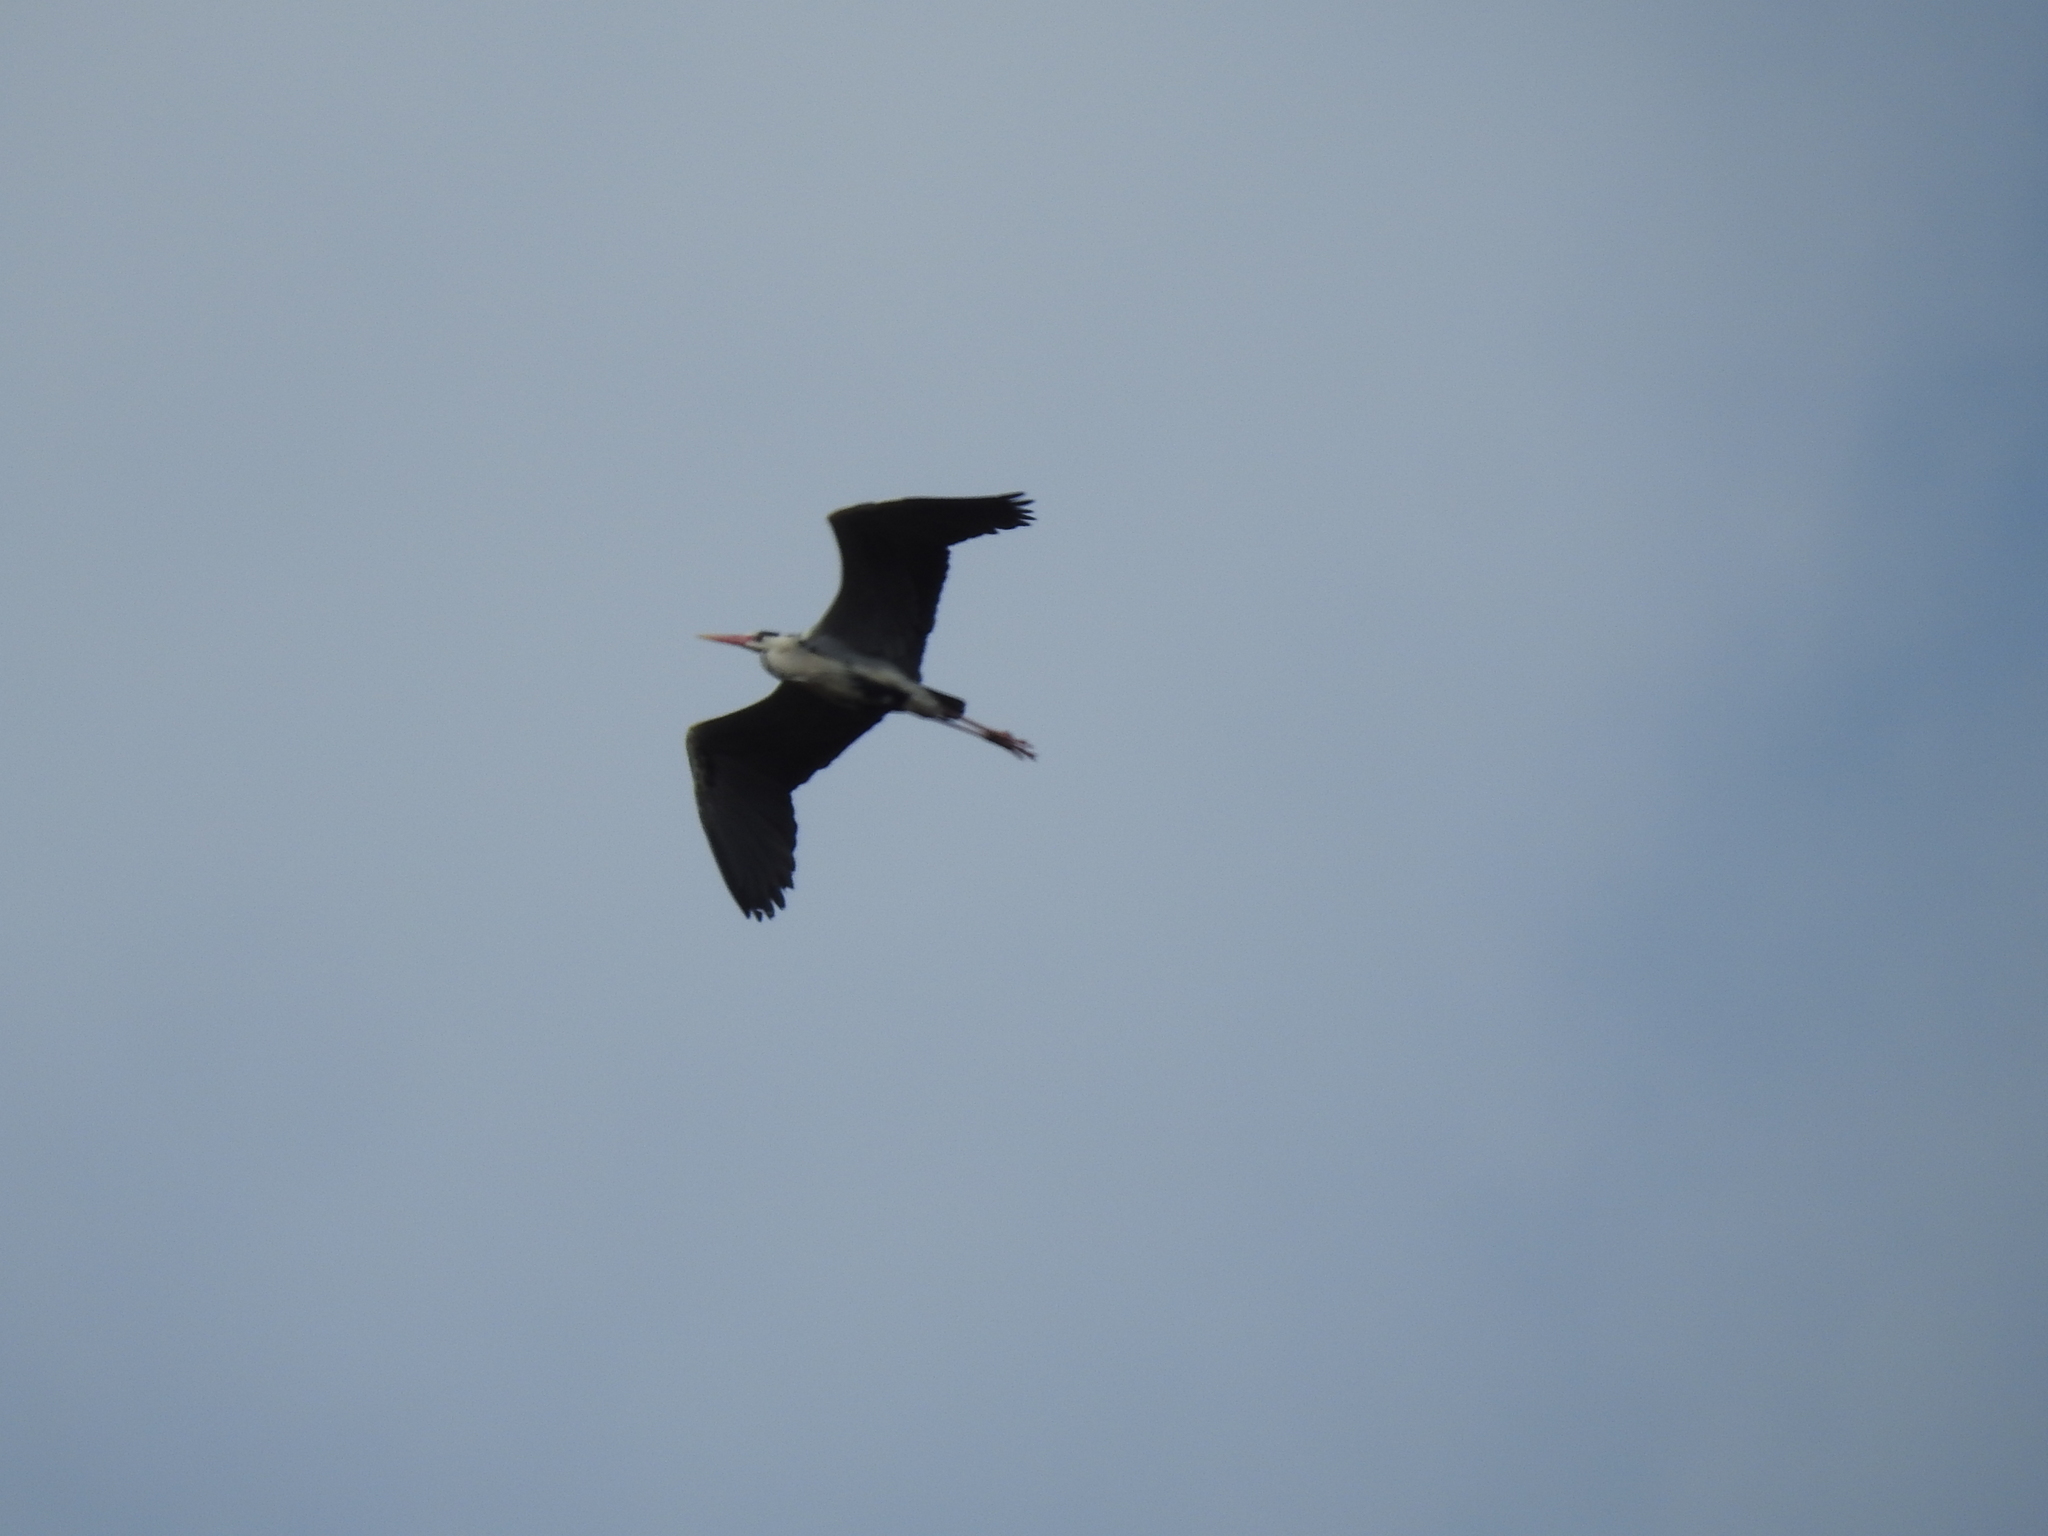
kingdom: Animalia
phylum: Chordata
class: Aves
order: Pelecaniformes
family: Ardeidae
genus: Ardea
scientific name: Ardea cinerea
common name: Grey heron
